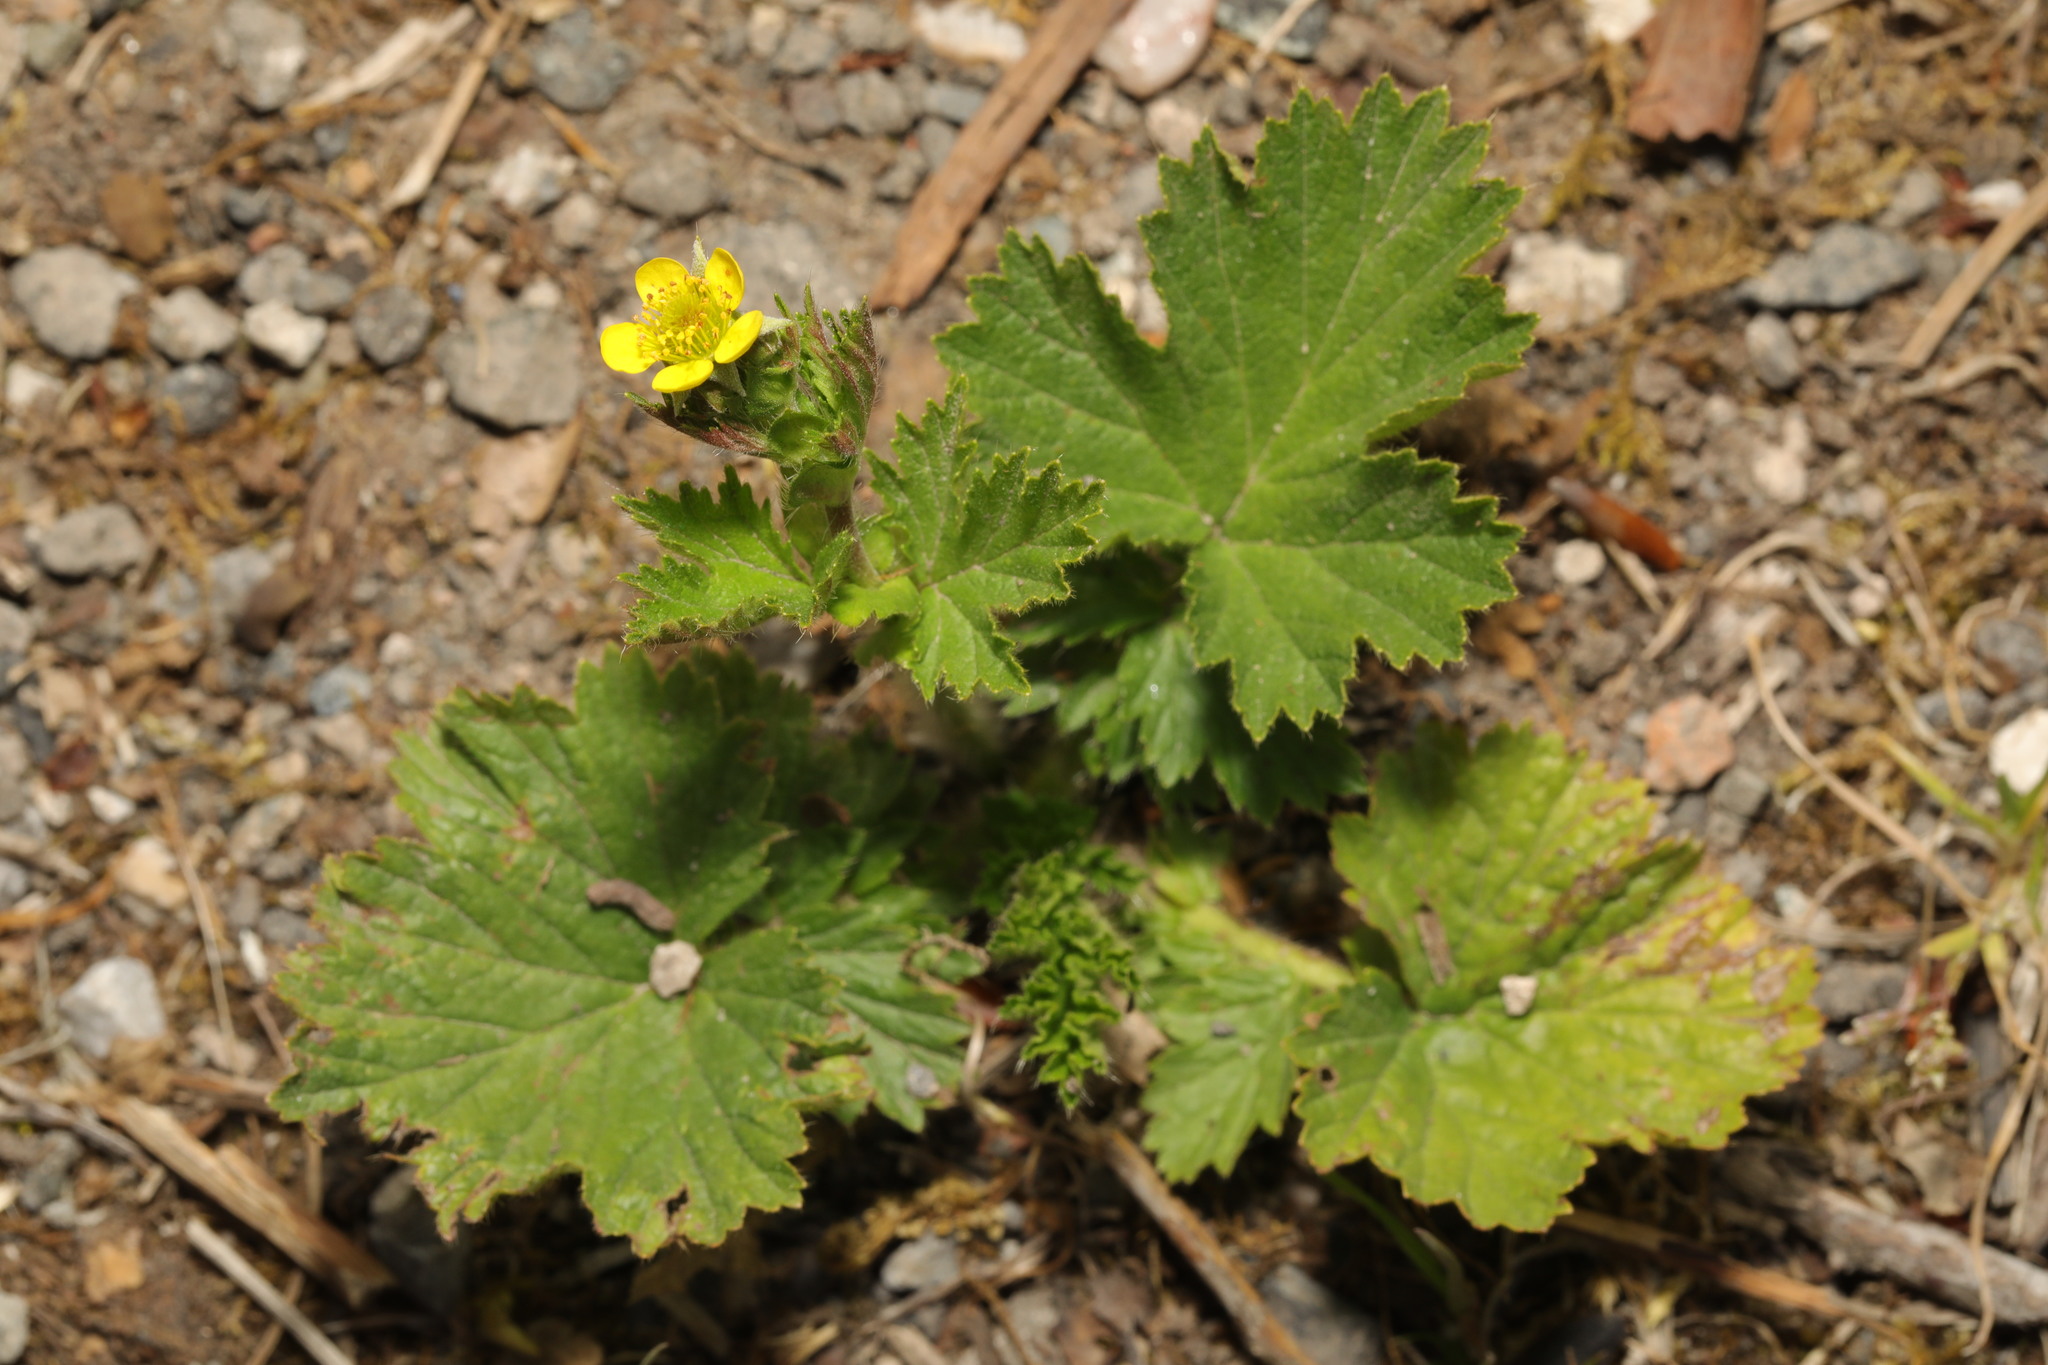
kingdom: Plantae
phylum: Tracheophyta
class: Magnoliopsida
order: Rosales
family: Rosaceae
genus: Geum
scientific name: Geum urbanum
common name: Wood avens
